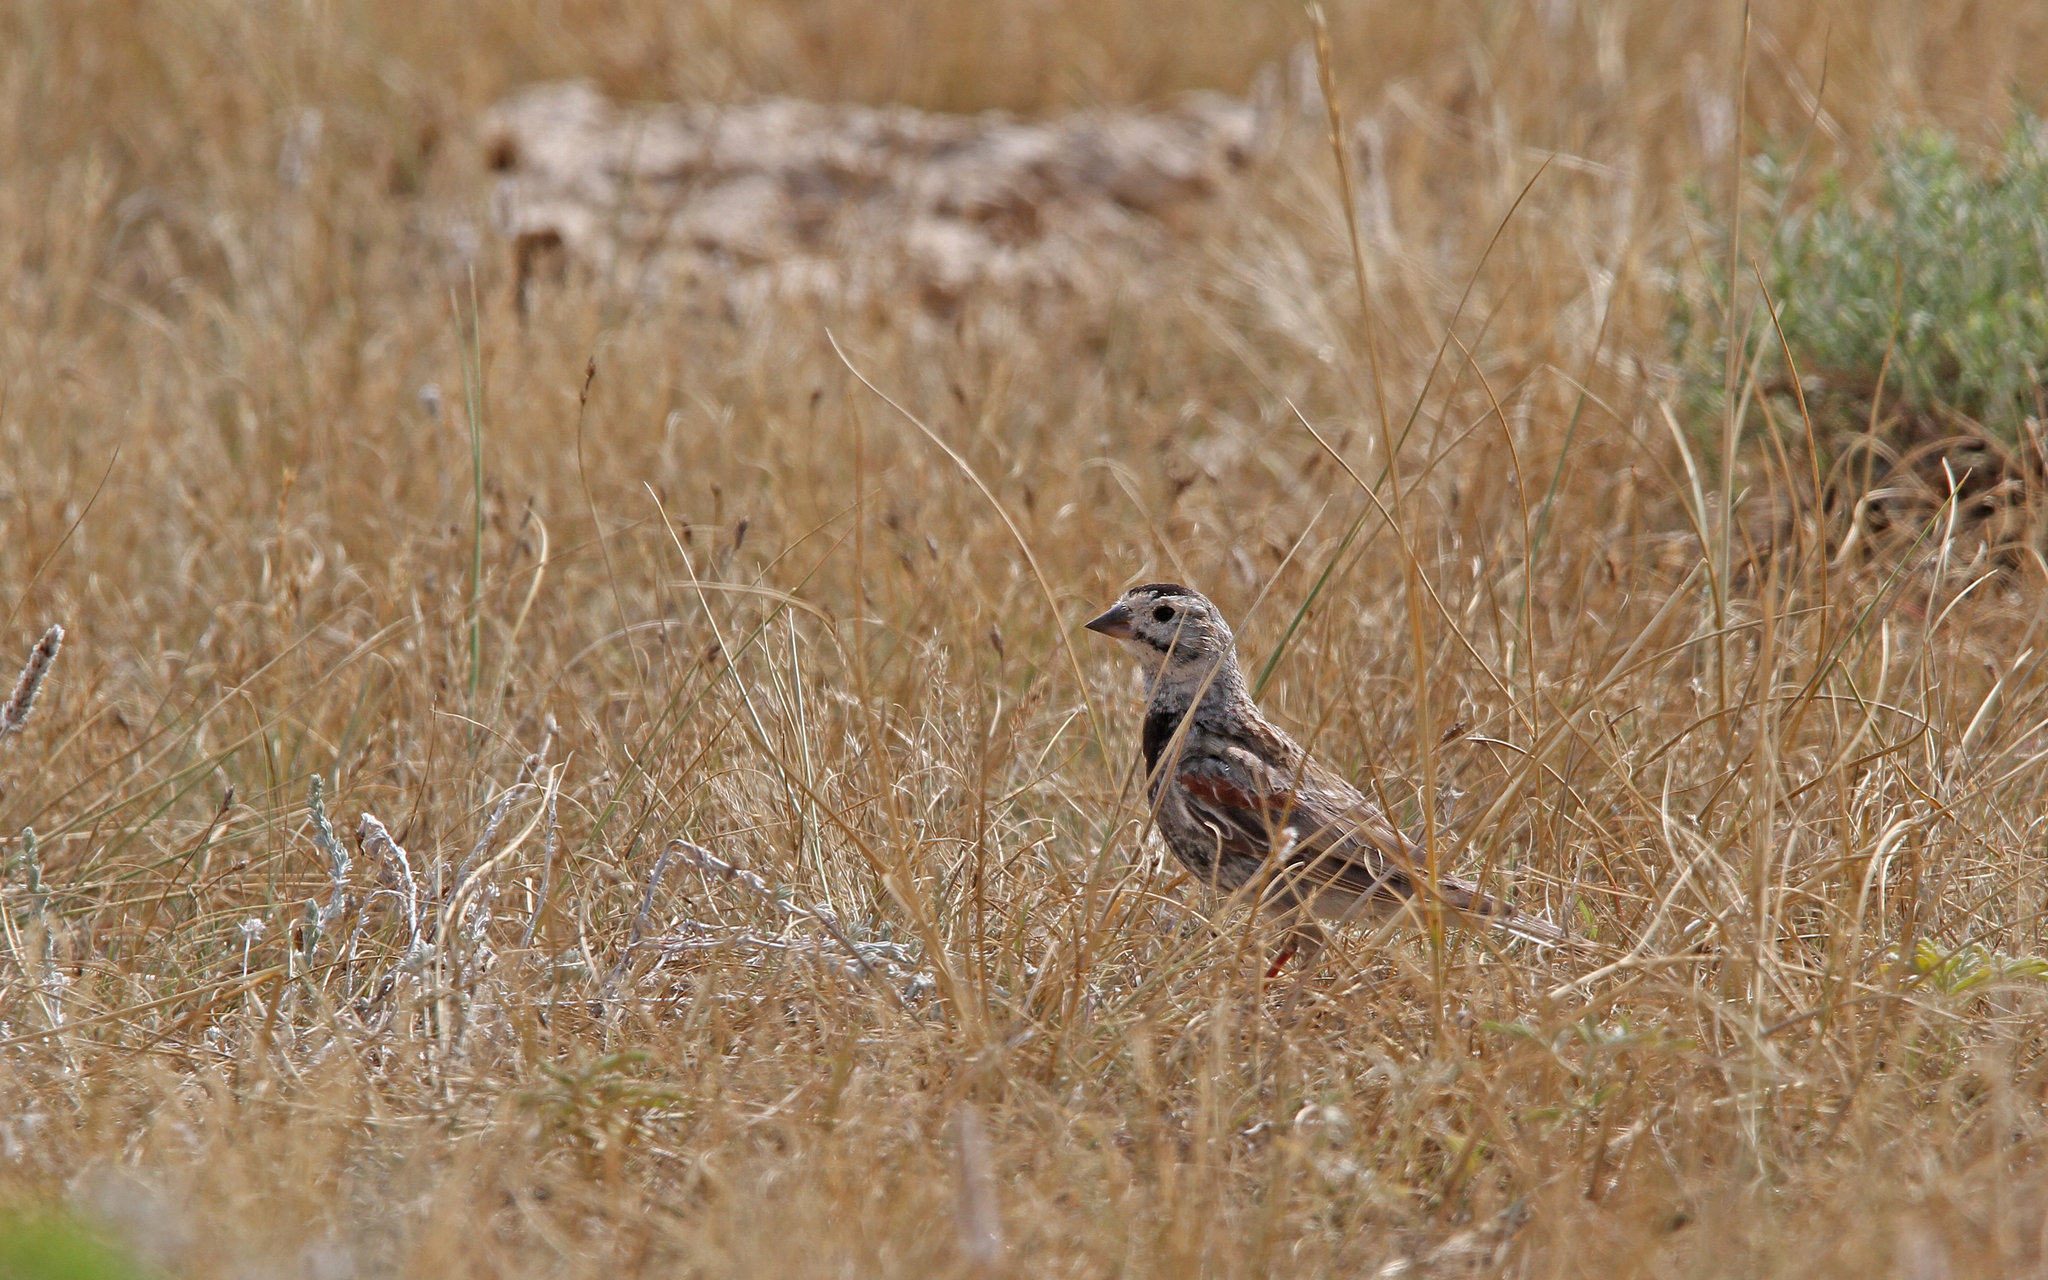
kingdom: Animalia
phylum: Chordata
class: Aves
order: Passeriformes
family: Calcariidae
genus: Rhynchophanes
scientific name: Rhynchophanes mccownii
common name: Mccown's longspur
